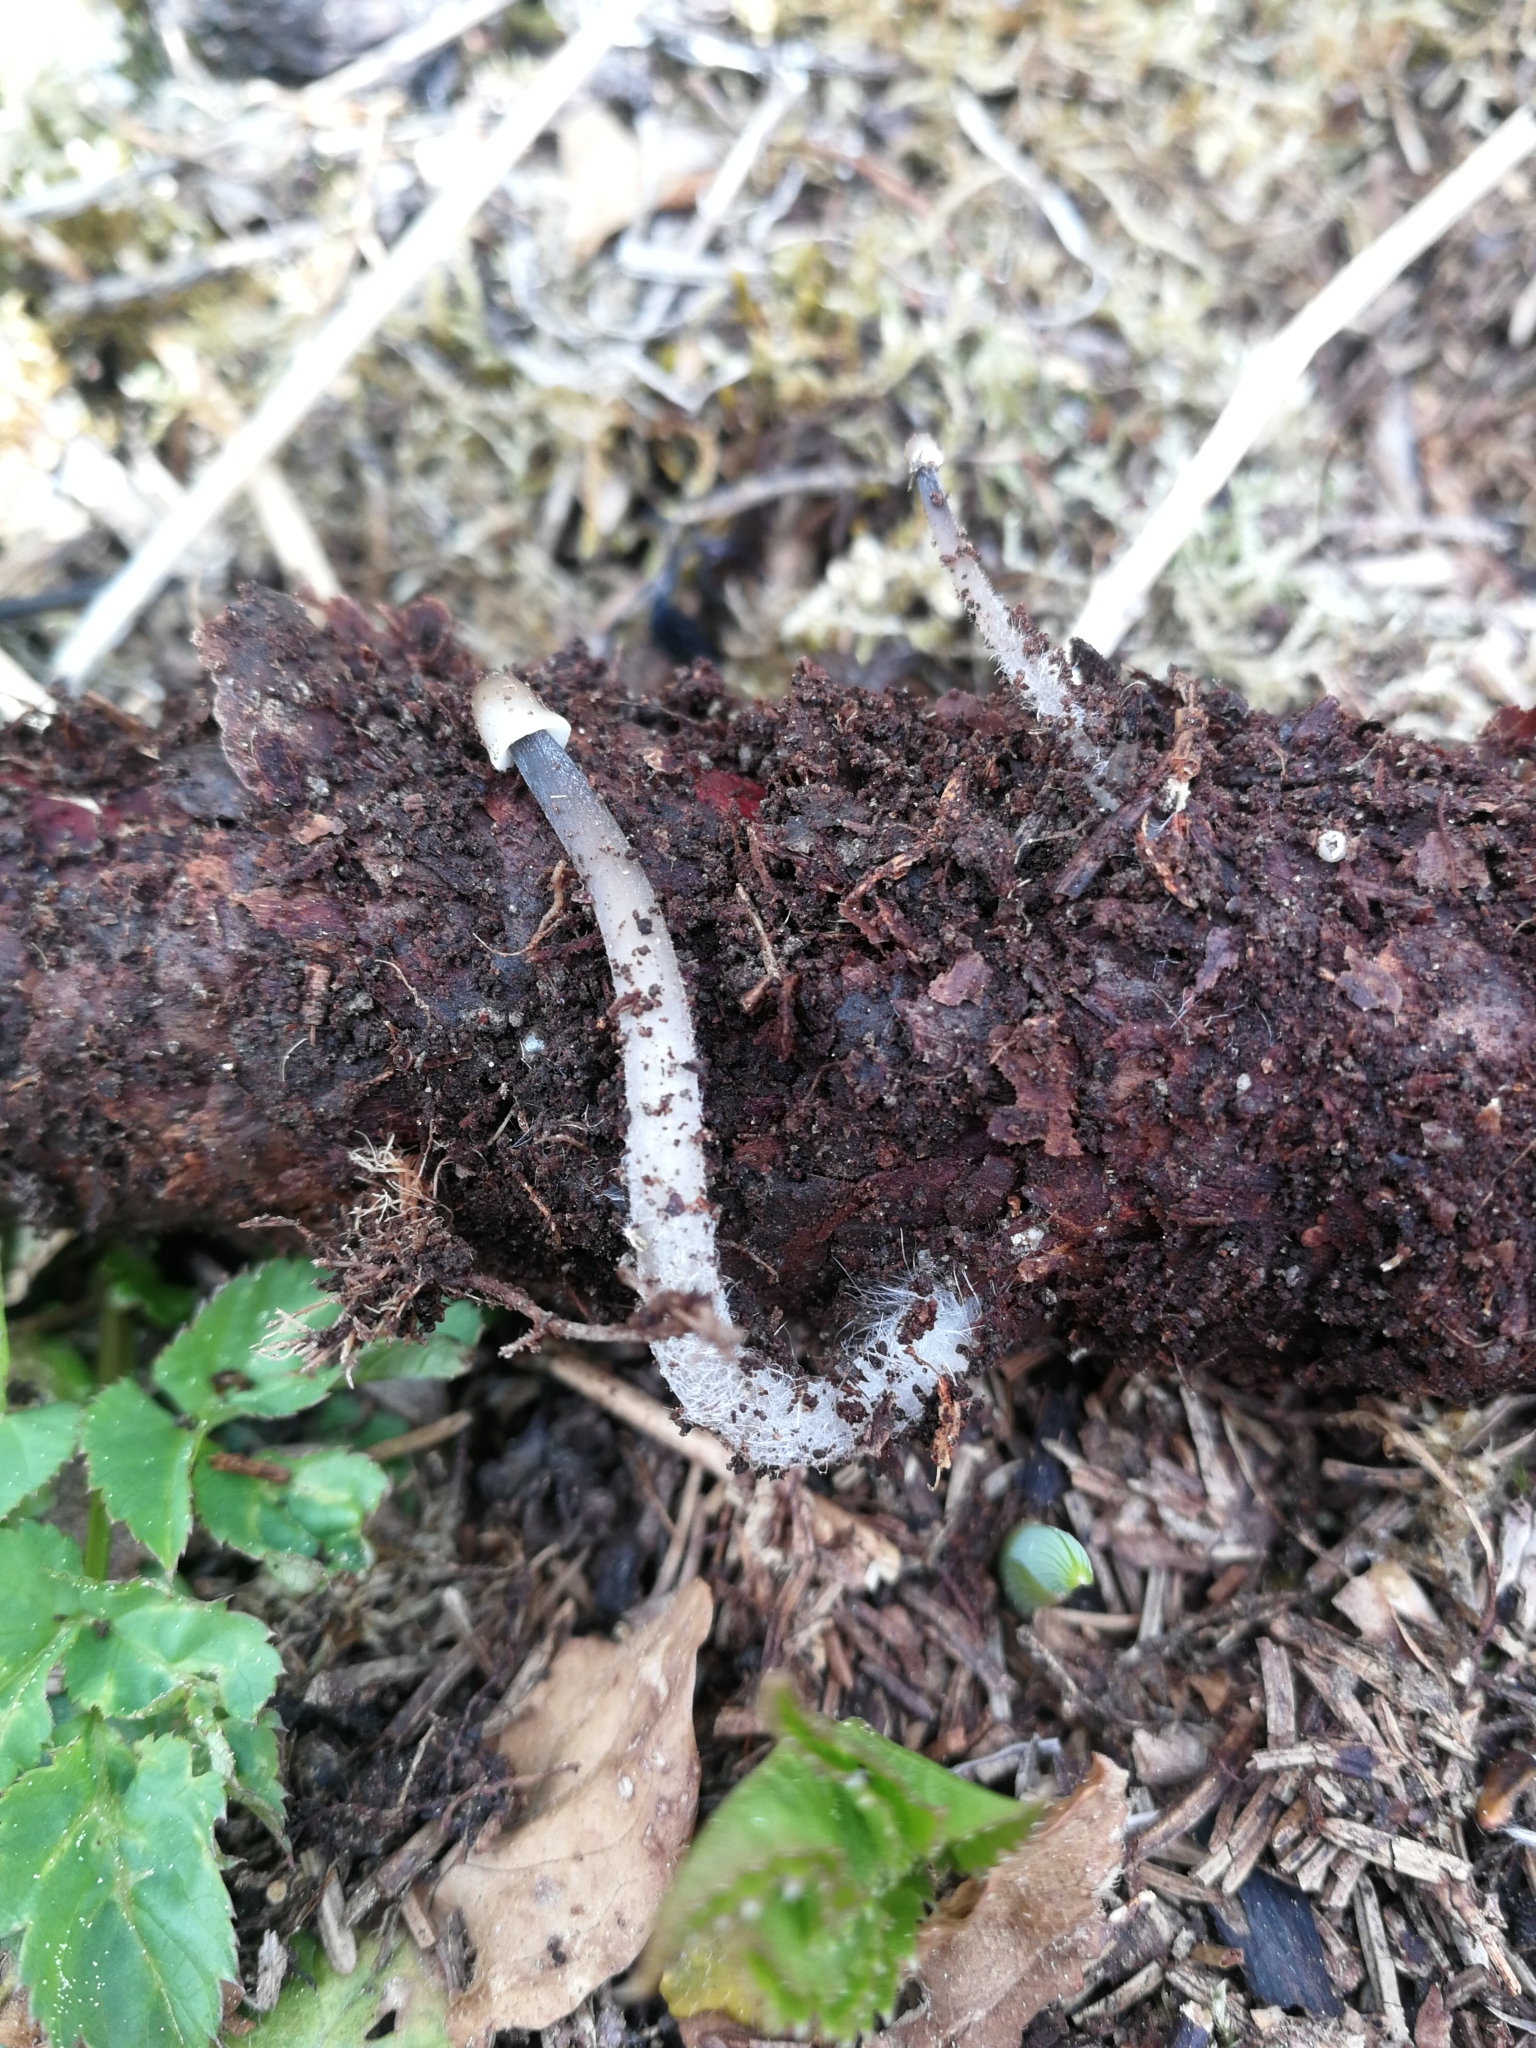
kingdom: Fungi
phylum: Basidiomycota
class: Agaricomycetes
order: Agaricales
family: Mycenaceae
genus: Mycena
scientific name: Mycena polygramma
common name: Grooved bonnet
